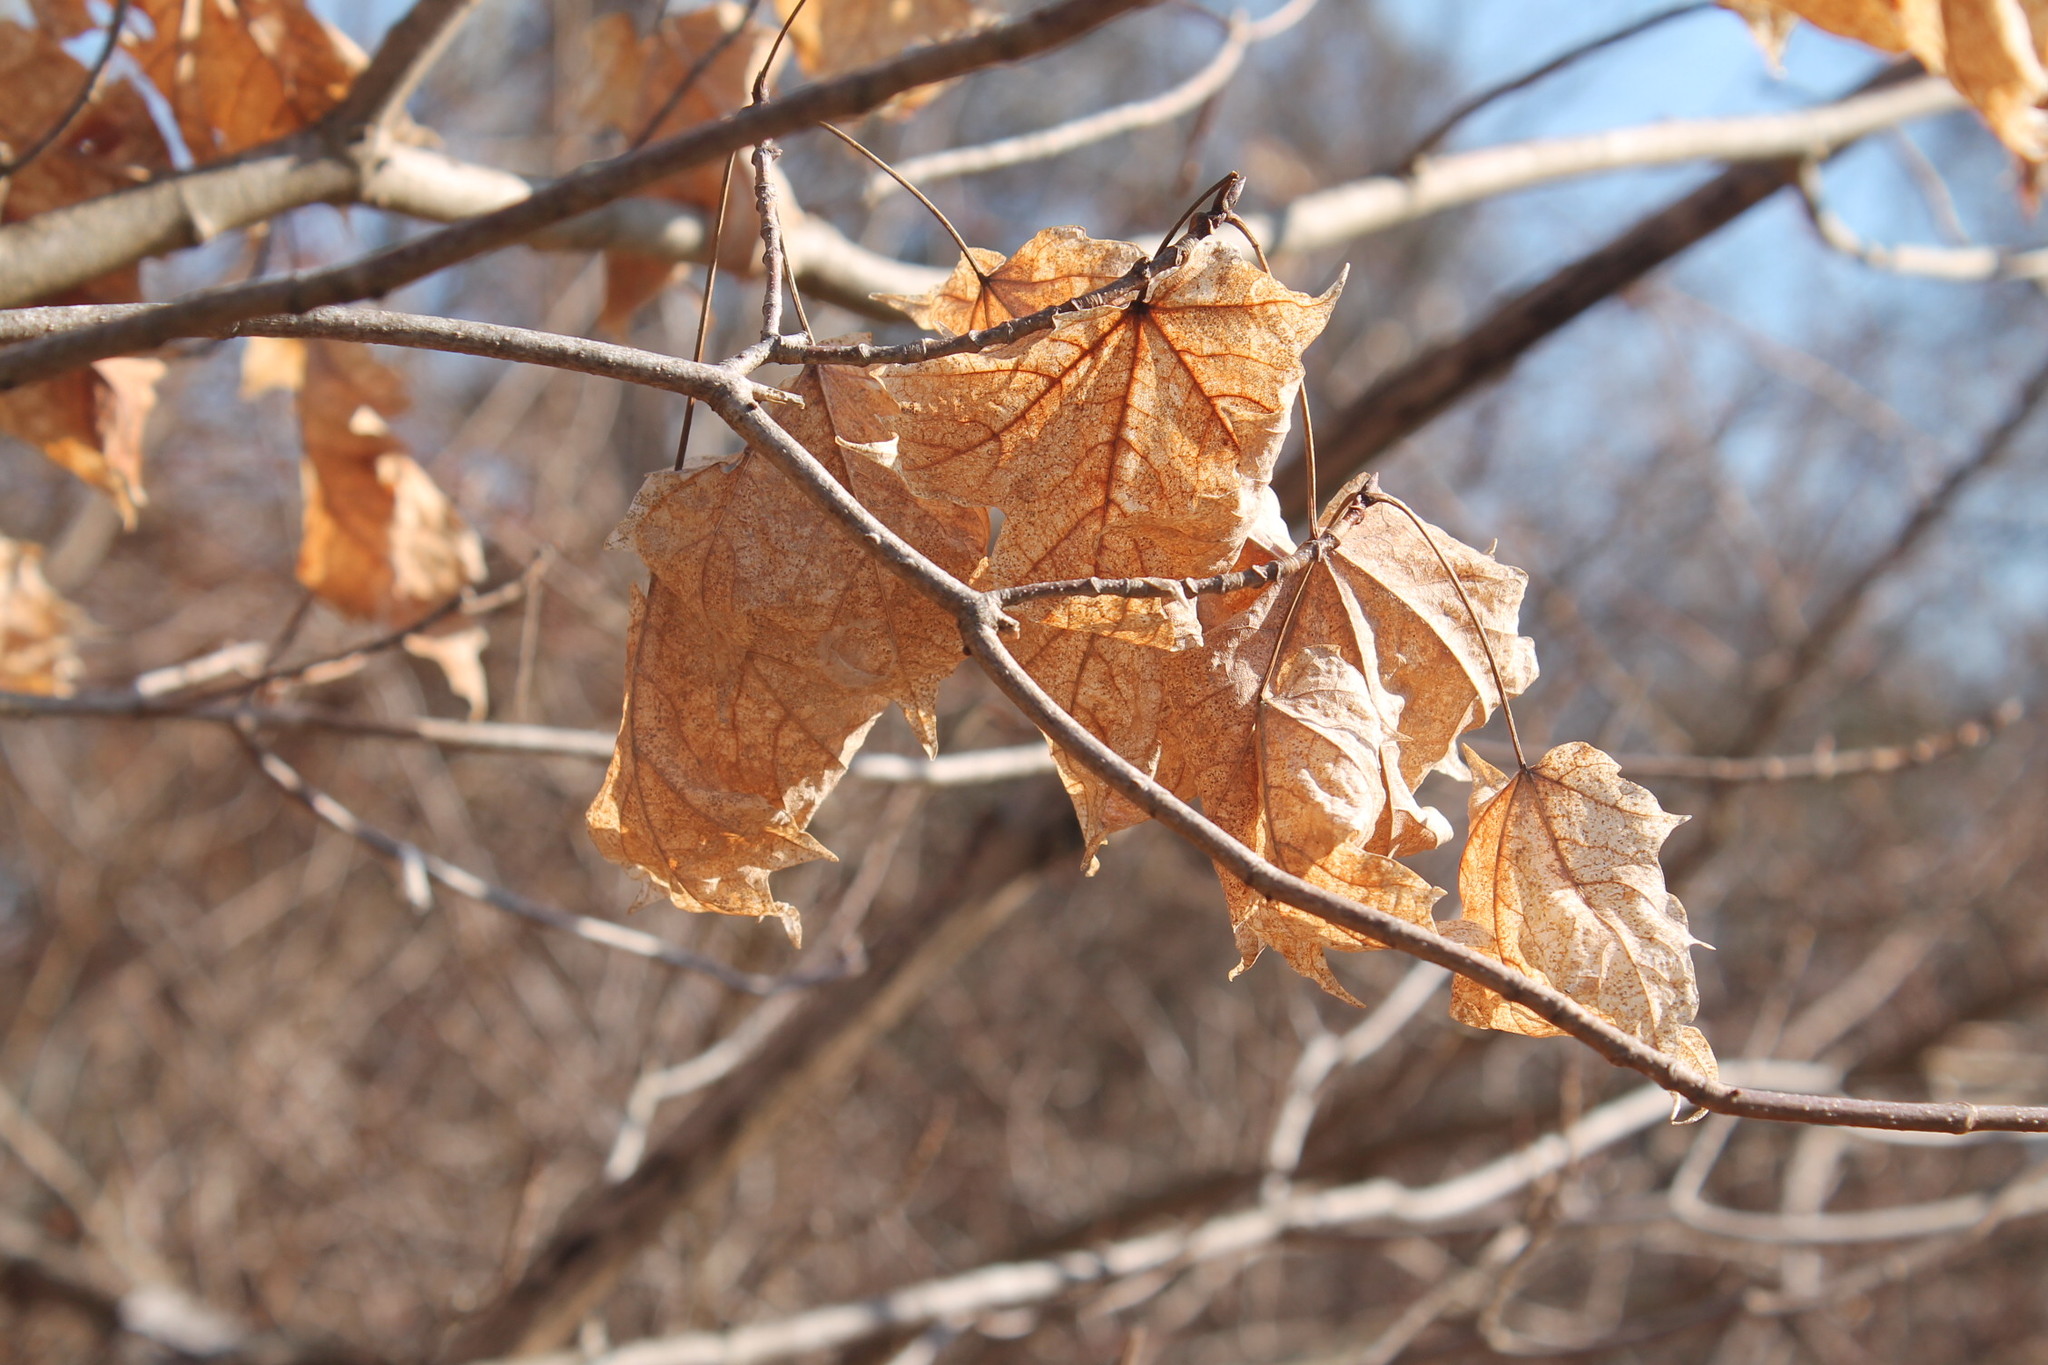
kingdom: Plantae
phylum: Tracheophyta
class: Magnoliopsida
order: Sapindales
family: Sapindaceae
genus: Acer
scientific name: Acer saccharum
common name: Sugar maple
